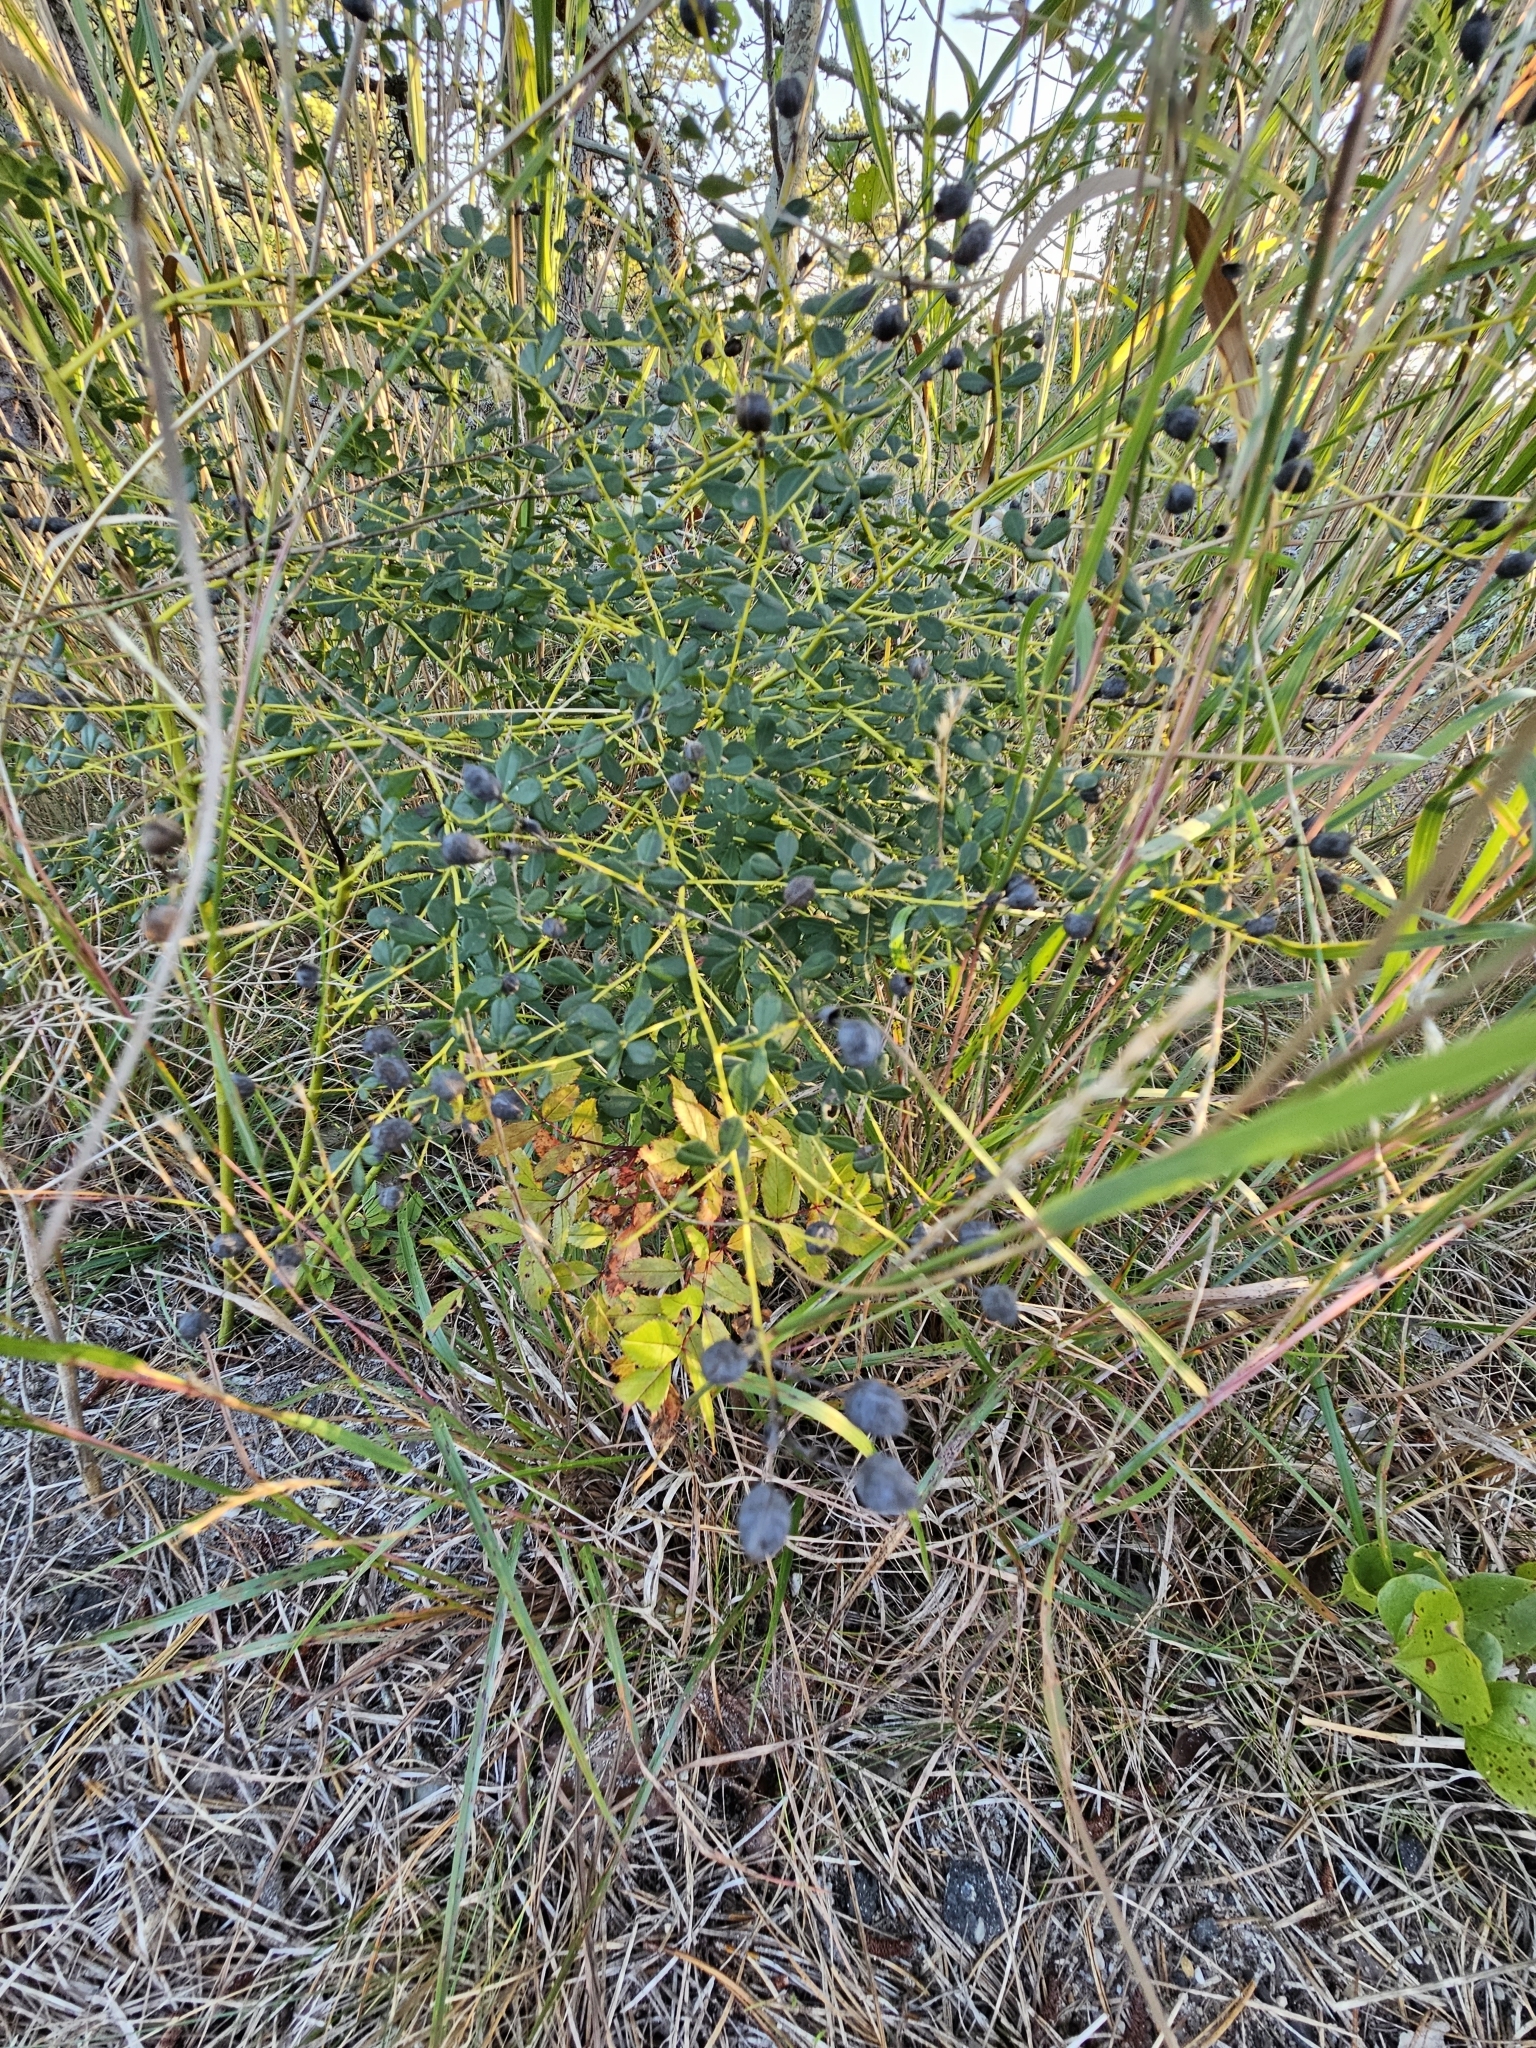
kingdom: Plantae
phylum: Tracheophyta
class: Magnoliopsida
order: Fabales
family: Fabaceae
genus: Baptisia
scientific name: Baptisia tinctoria
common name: Wild indigo
